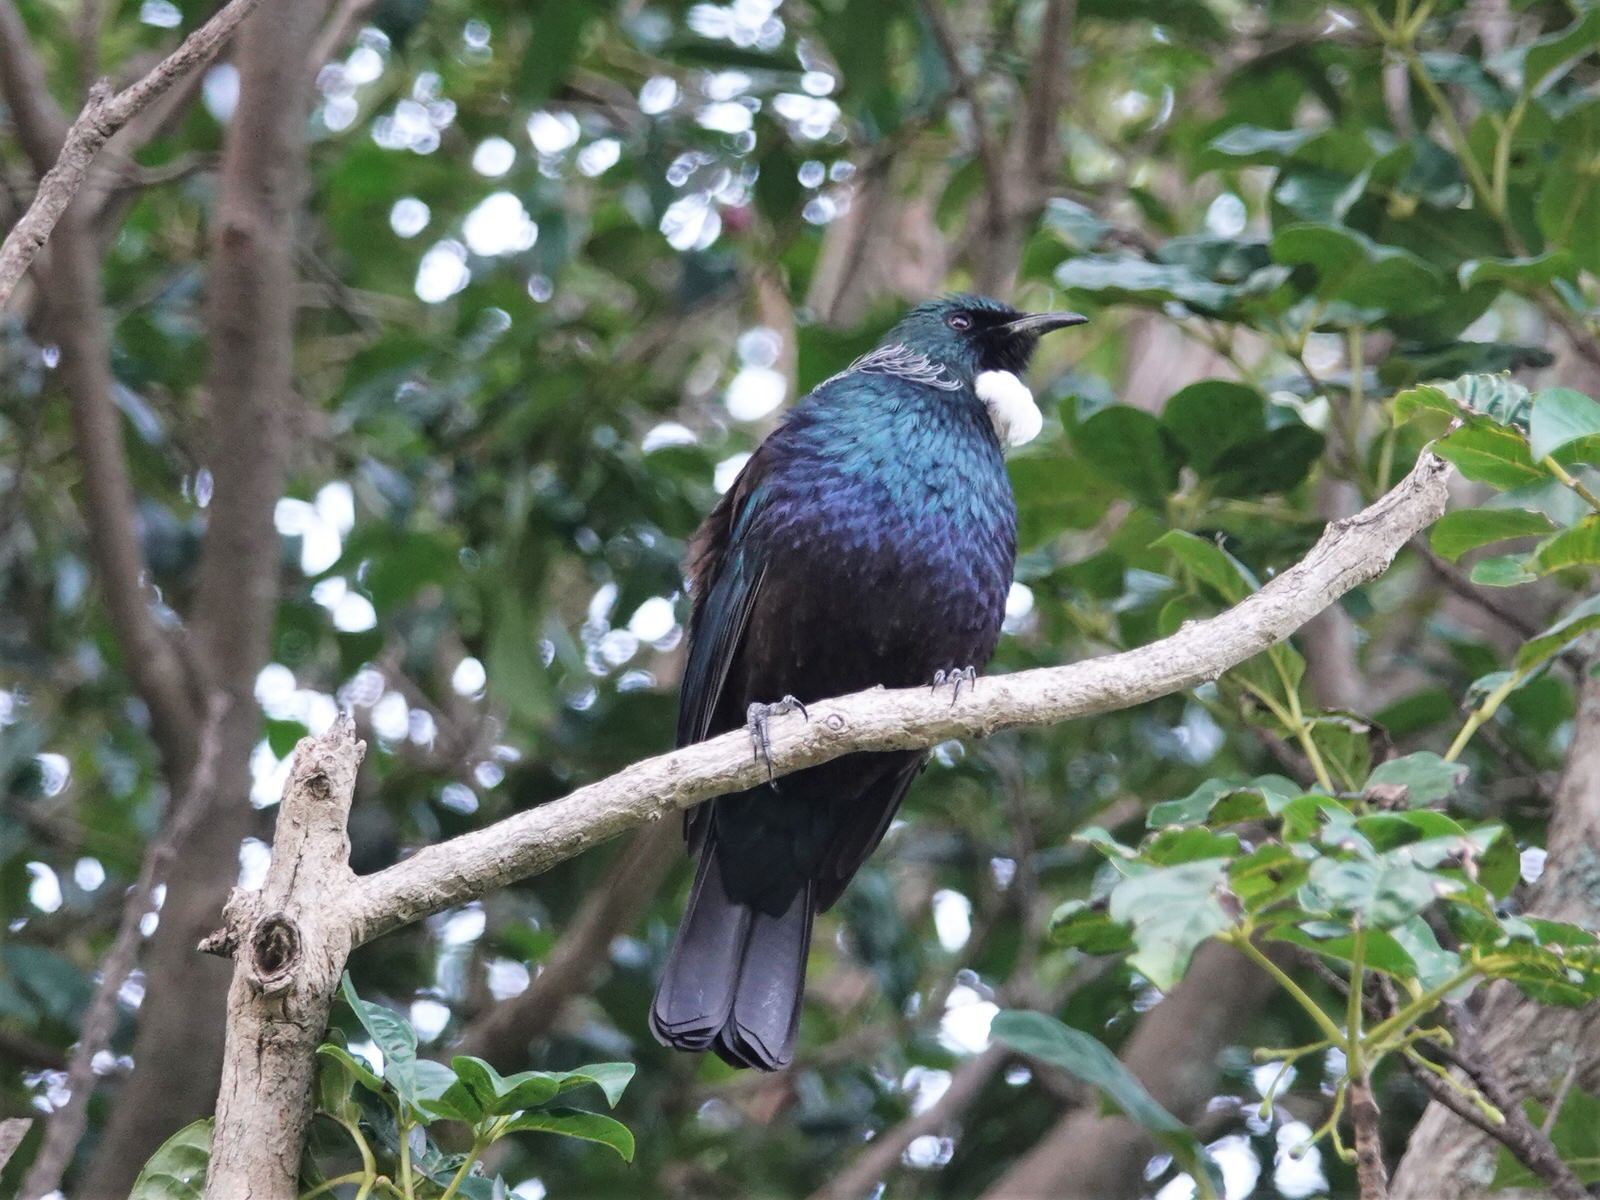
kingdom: Animalia
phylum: Chordata
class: Aves
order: Passeriformes
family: Meliphagidae
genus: Prosthemadera
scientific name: Prosthemadera novaeseelandiae
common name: Tui
